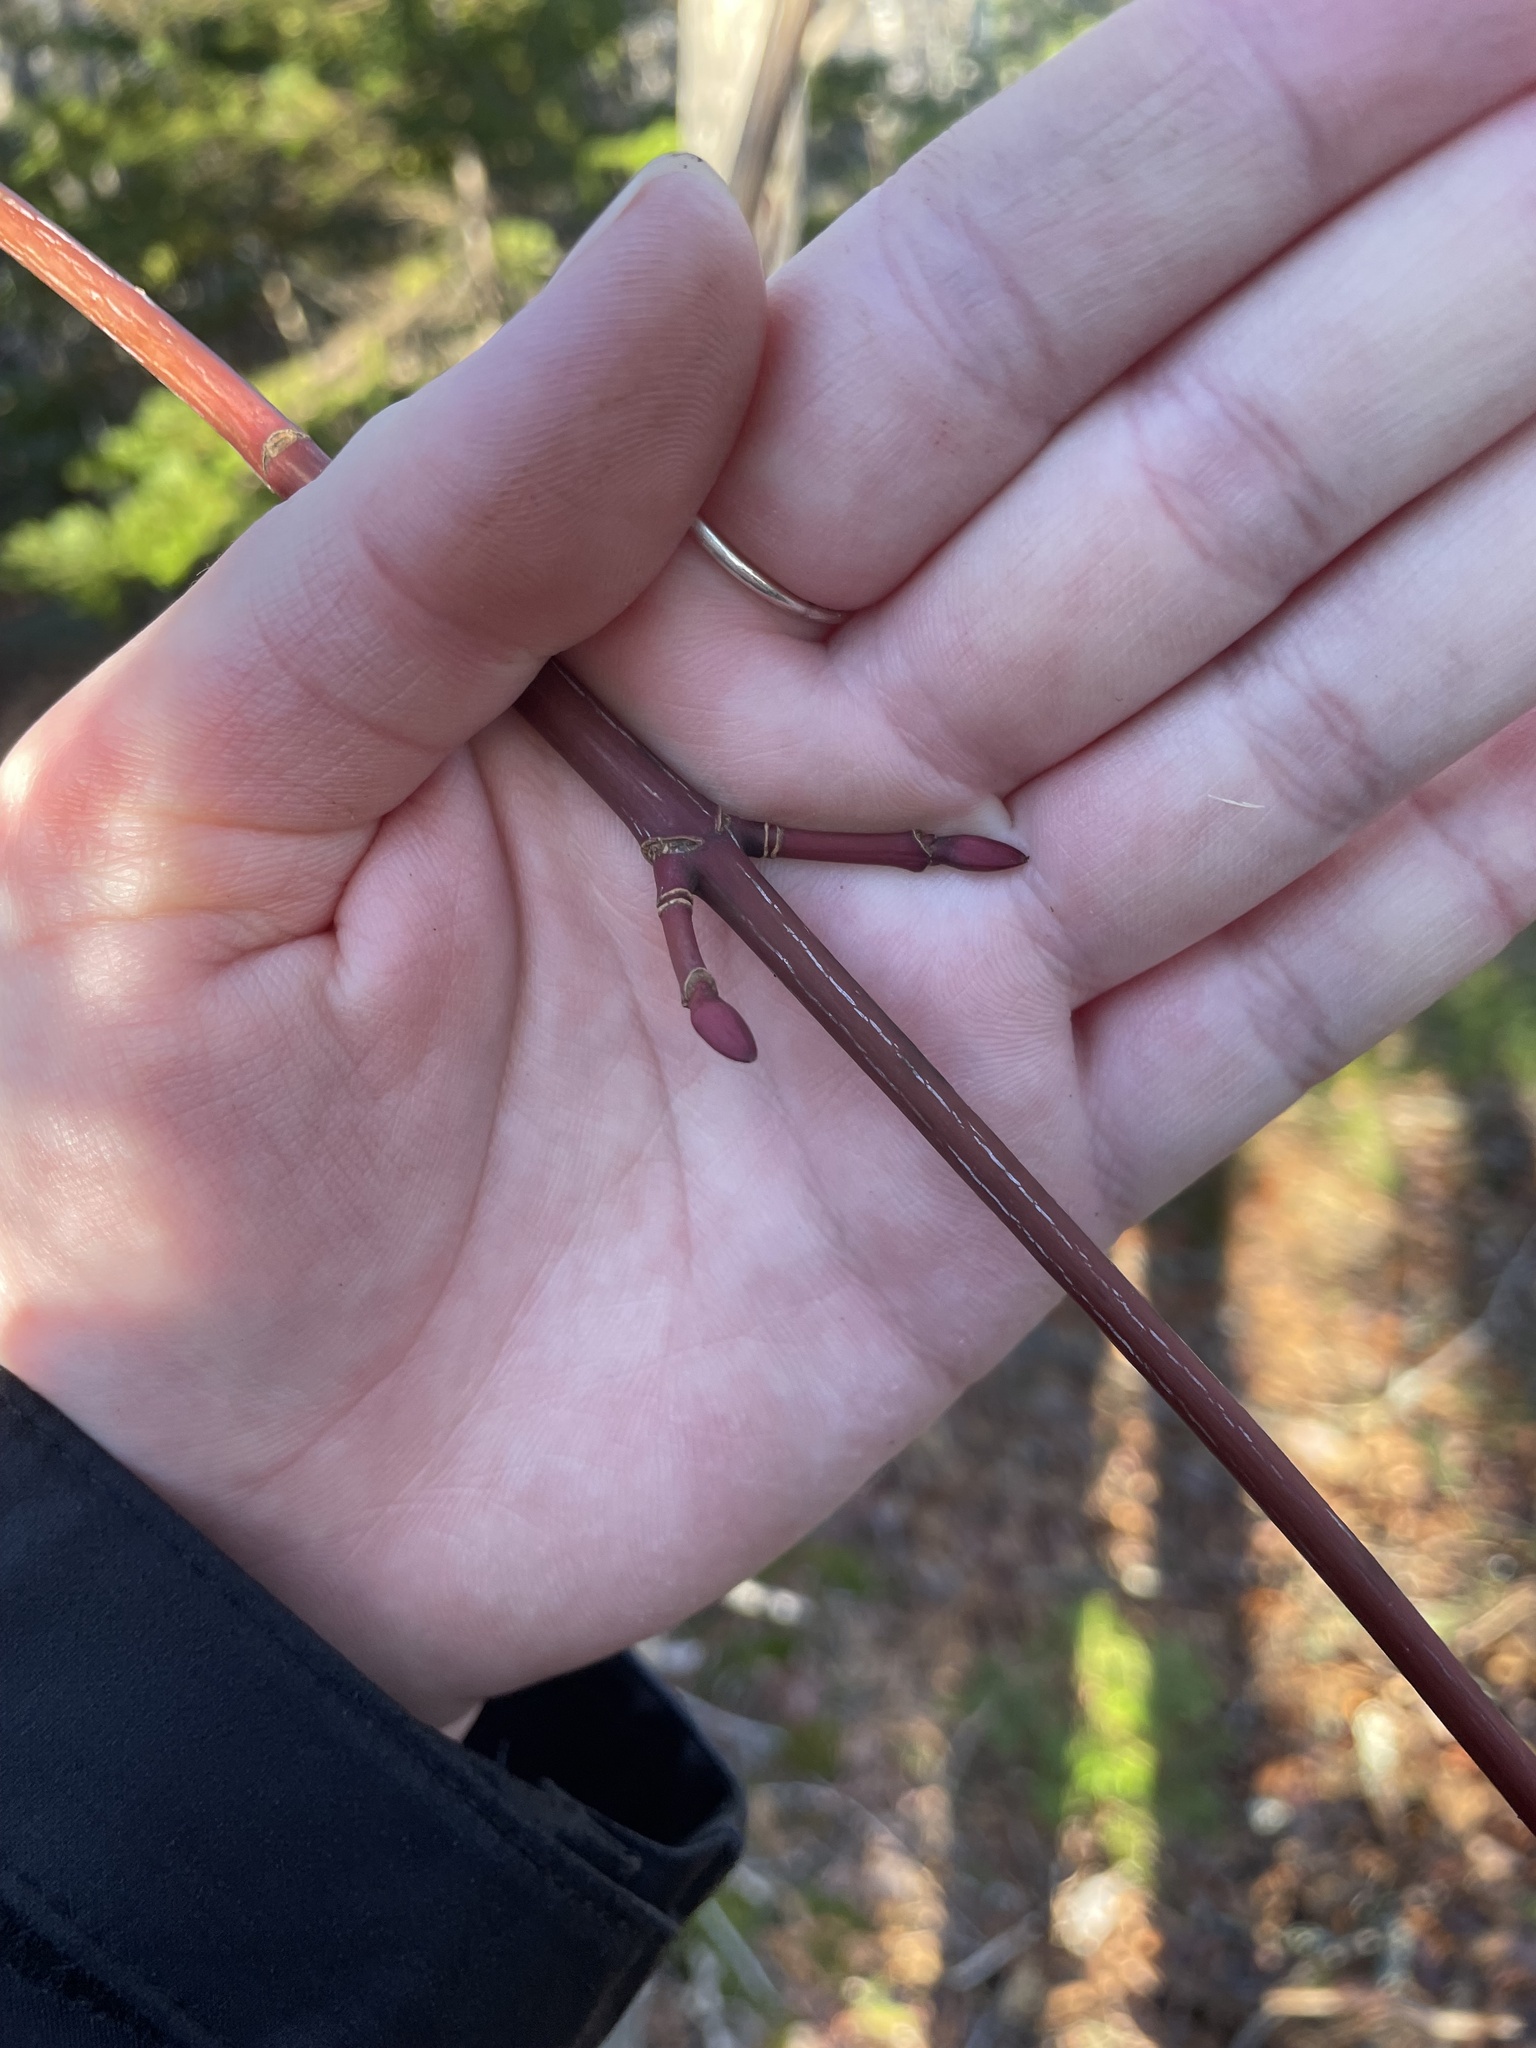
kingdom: Plantae
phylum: Tracheophyta
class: Magnoliopsida
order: Sapindales
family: Sapindaceae
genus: Acer
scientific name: Acer pensylvanicum
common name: Moosewood
